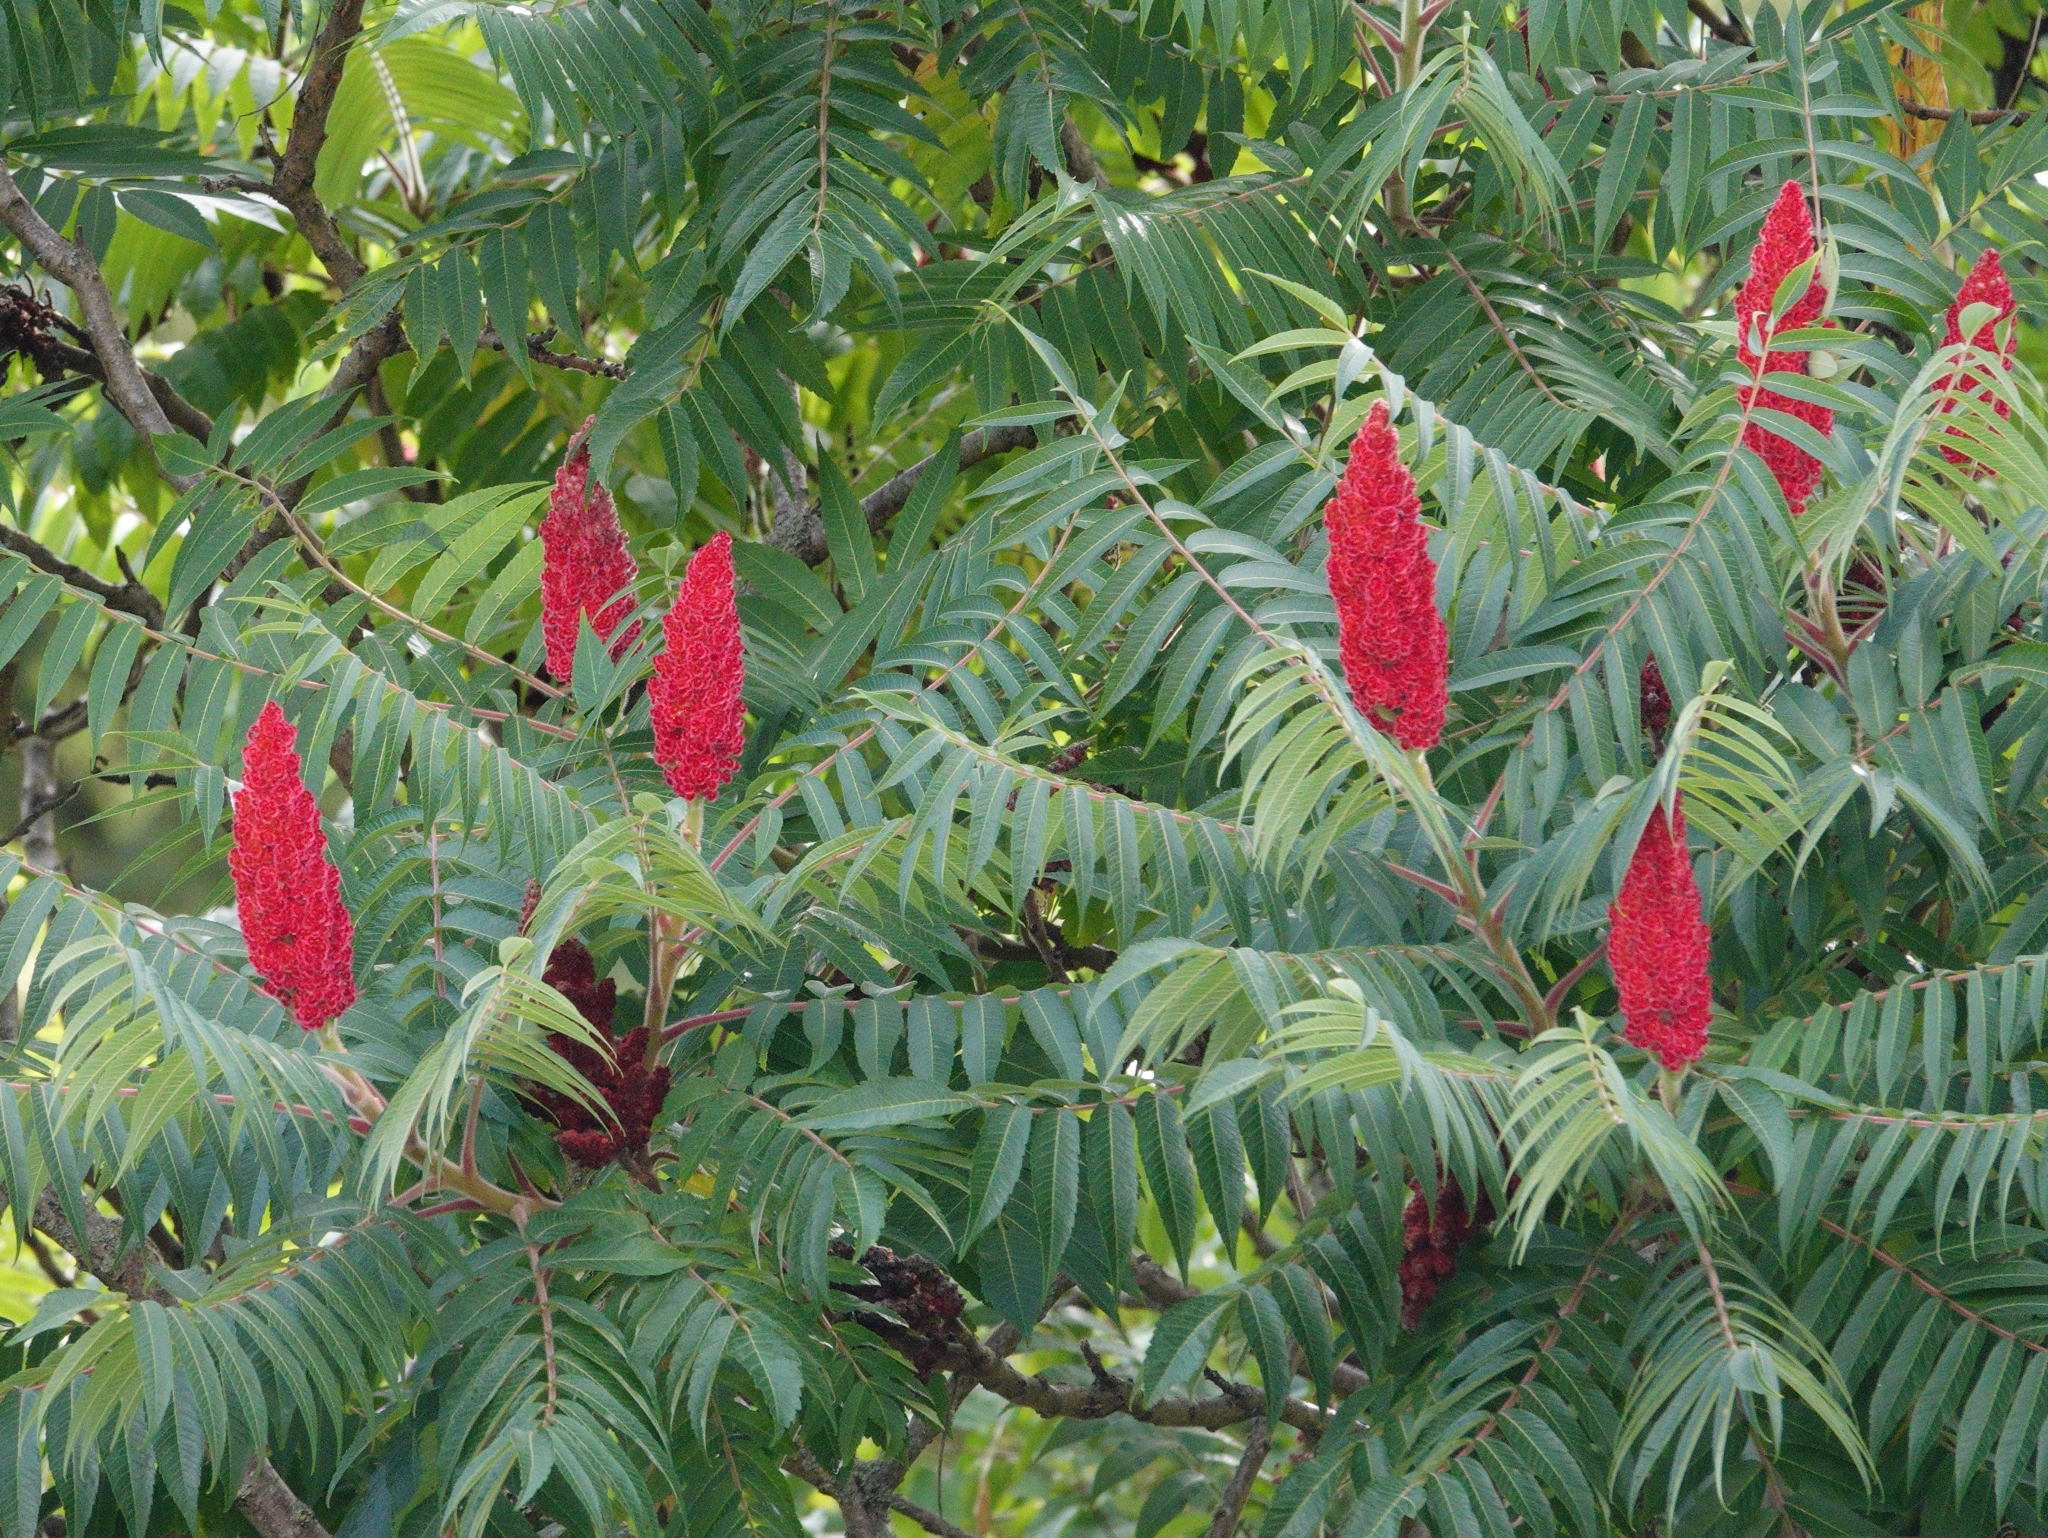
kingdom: Plantae
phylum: Tracheophyta
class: Magnoliopsida
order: Sapindales
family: Anacardiaceae
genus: Rhus
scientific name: Rhus typhina
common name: Staghorn sumac
